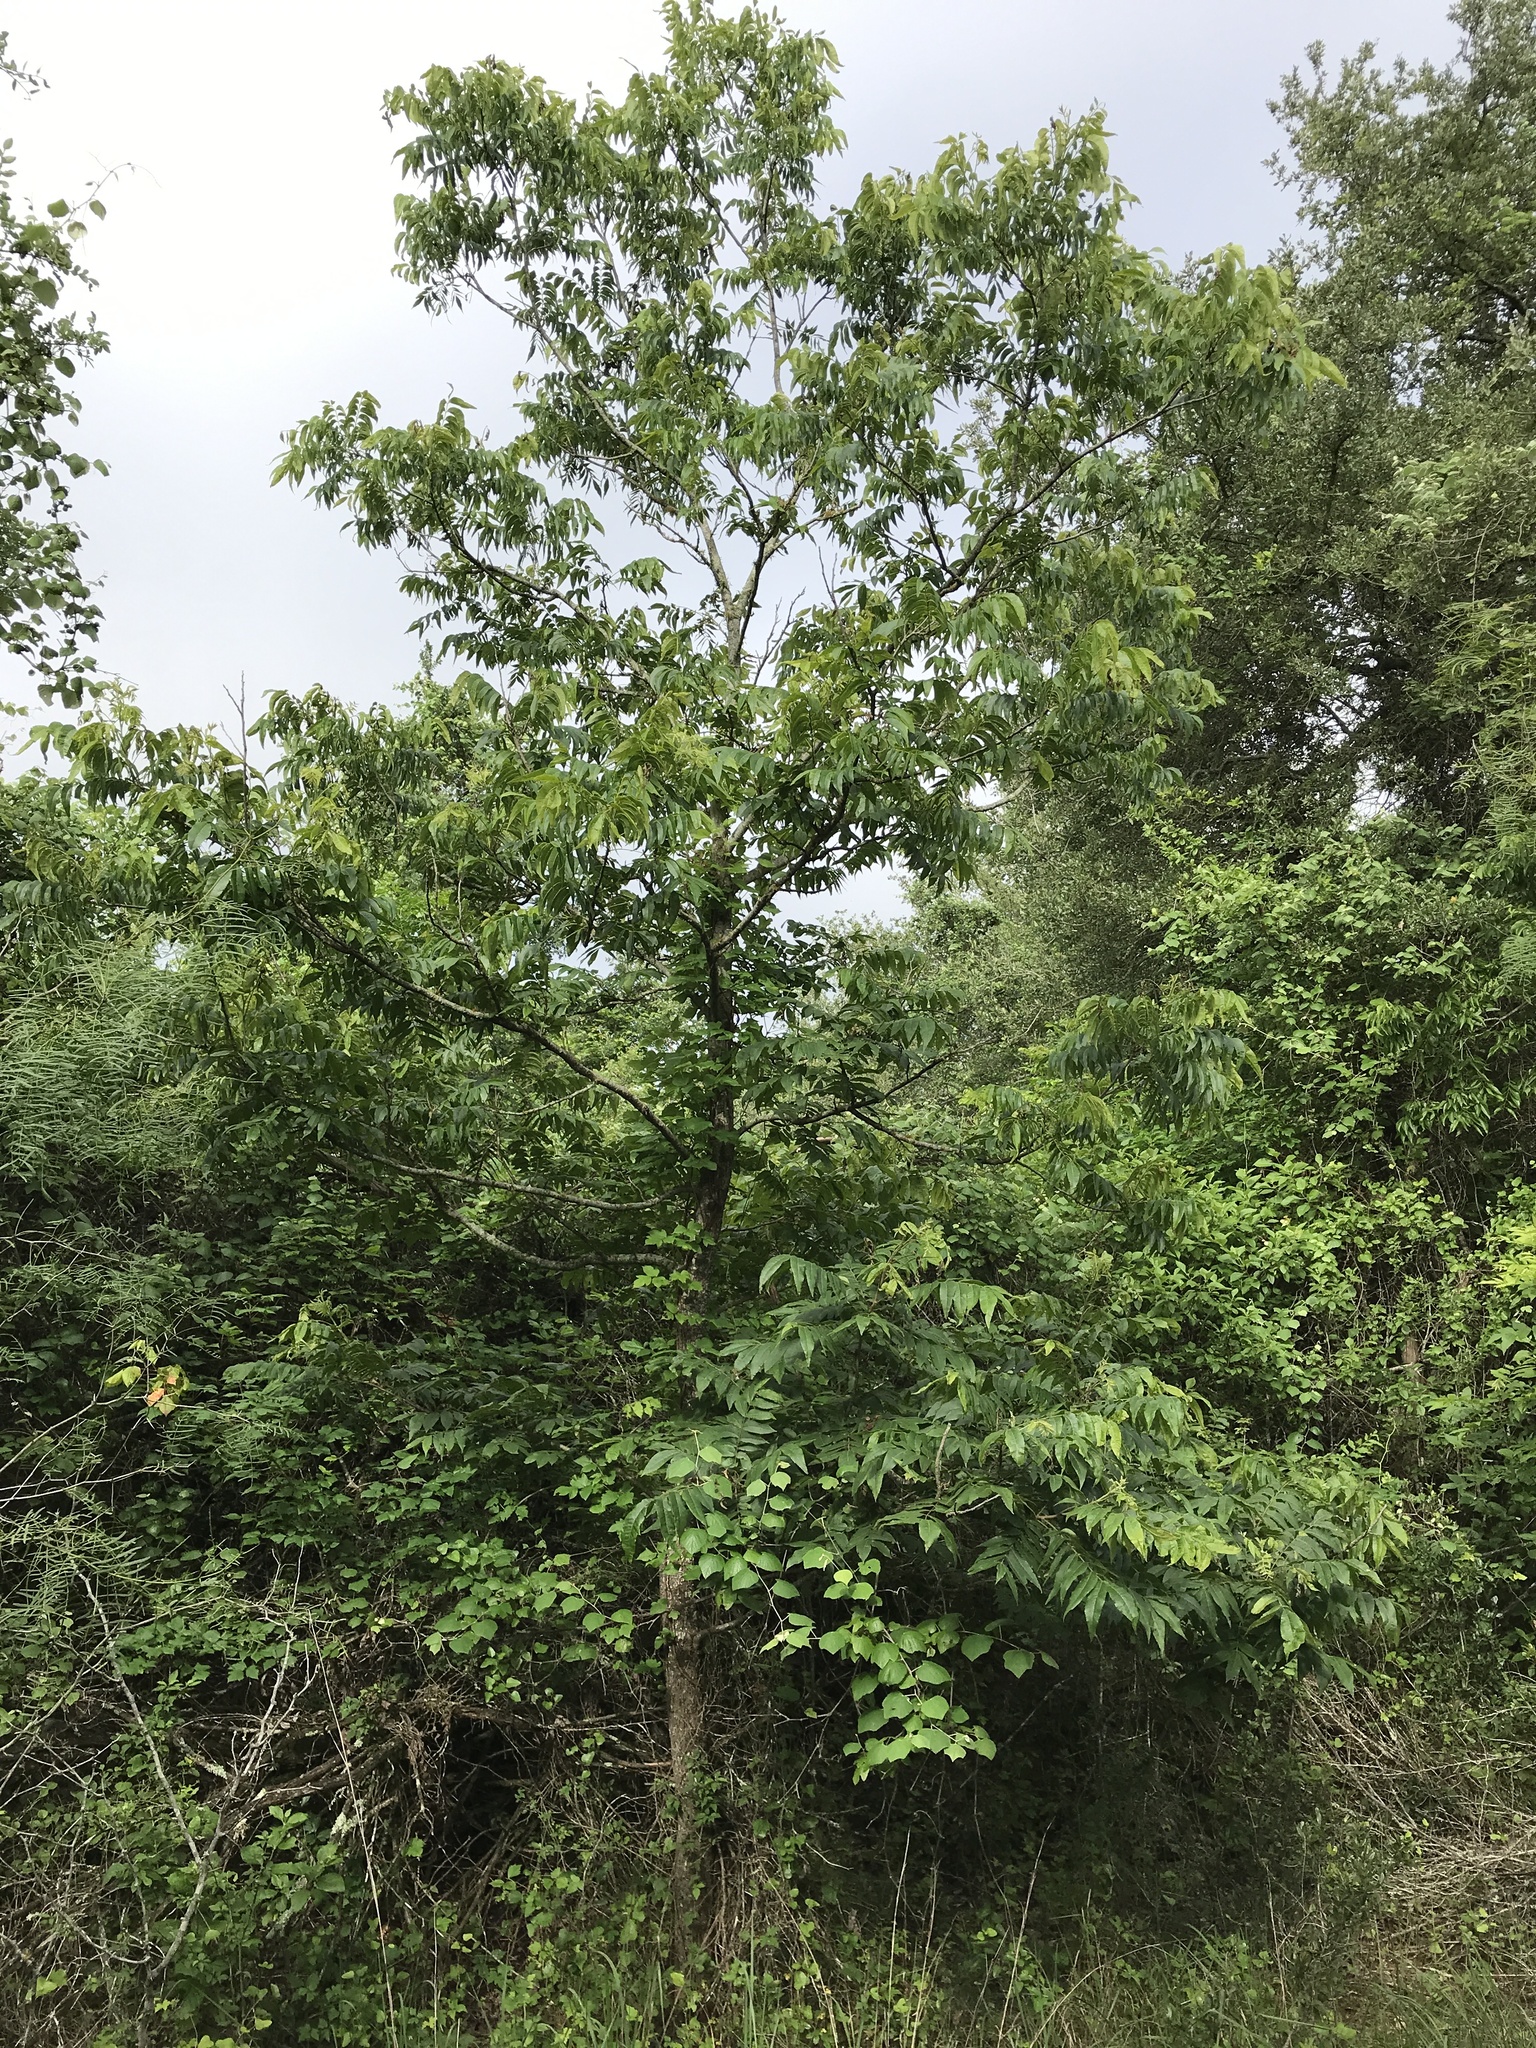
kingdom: Plantae
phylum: Tracheophyta
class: Magnoliopsida
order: Fagales
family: Juglandaceae
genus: Carya
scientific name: Carya illinoinensis
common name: Pecan
